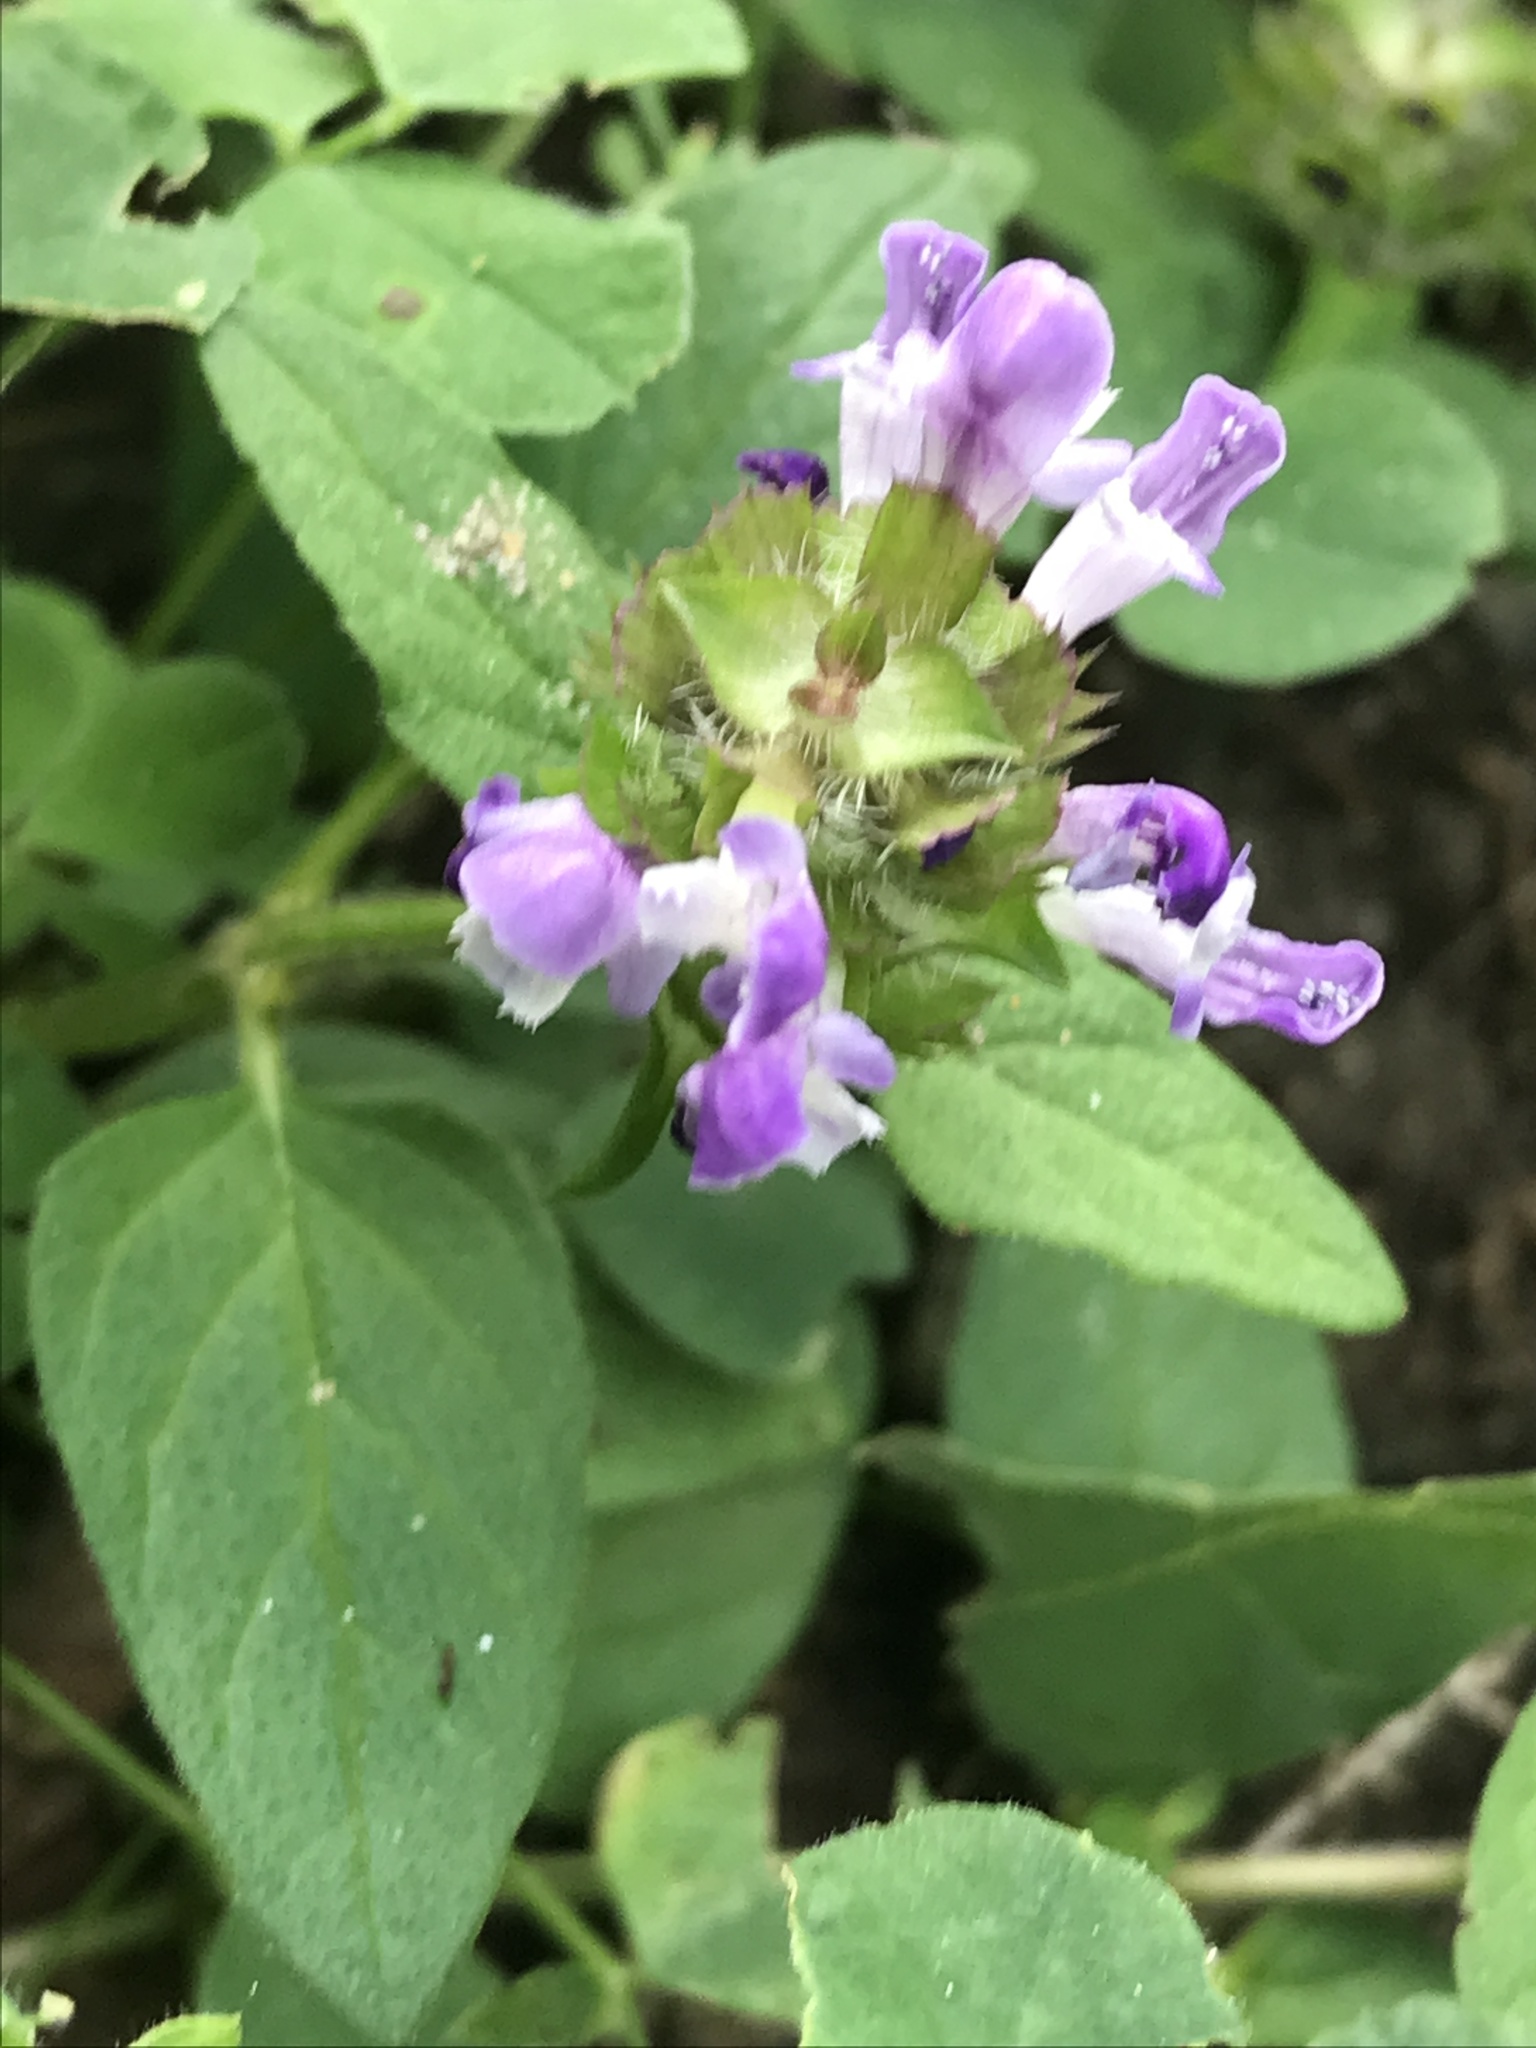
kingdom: Plantae
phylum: Tracheophyta
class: Magnoliopsida
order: Lamiales
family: Lamiaceae
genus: Prunella
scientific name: Prunella vulgaris
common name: Heal-all
